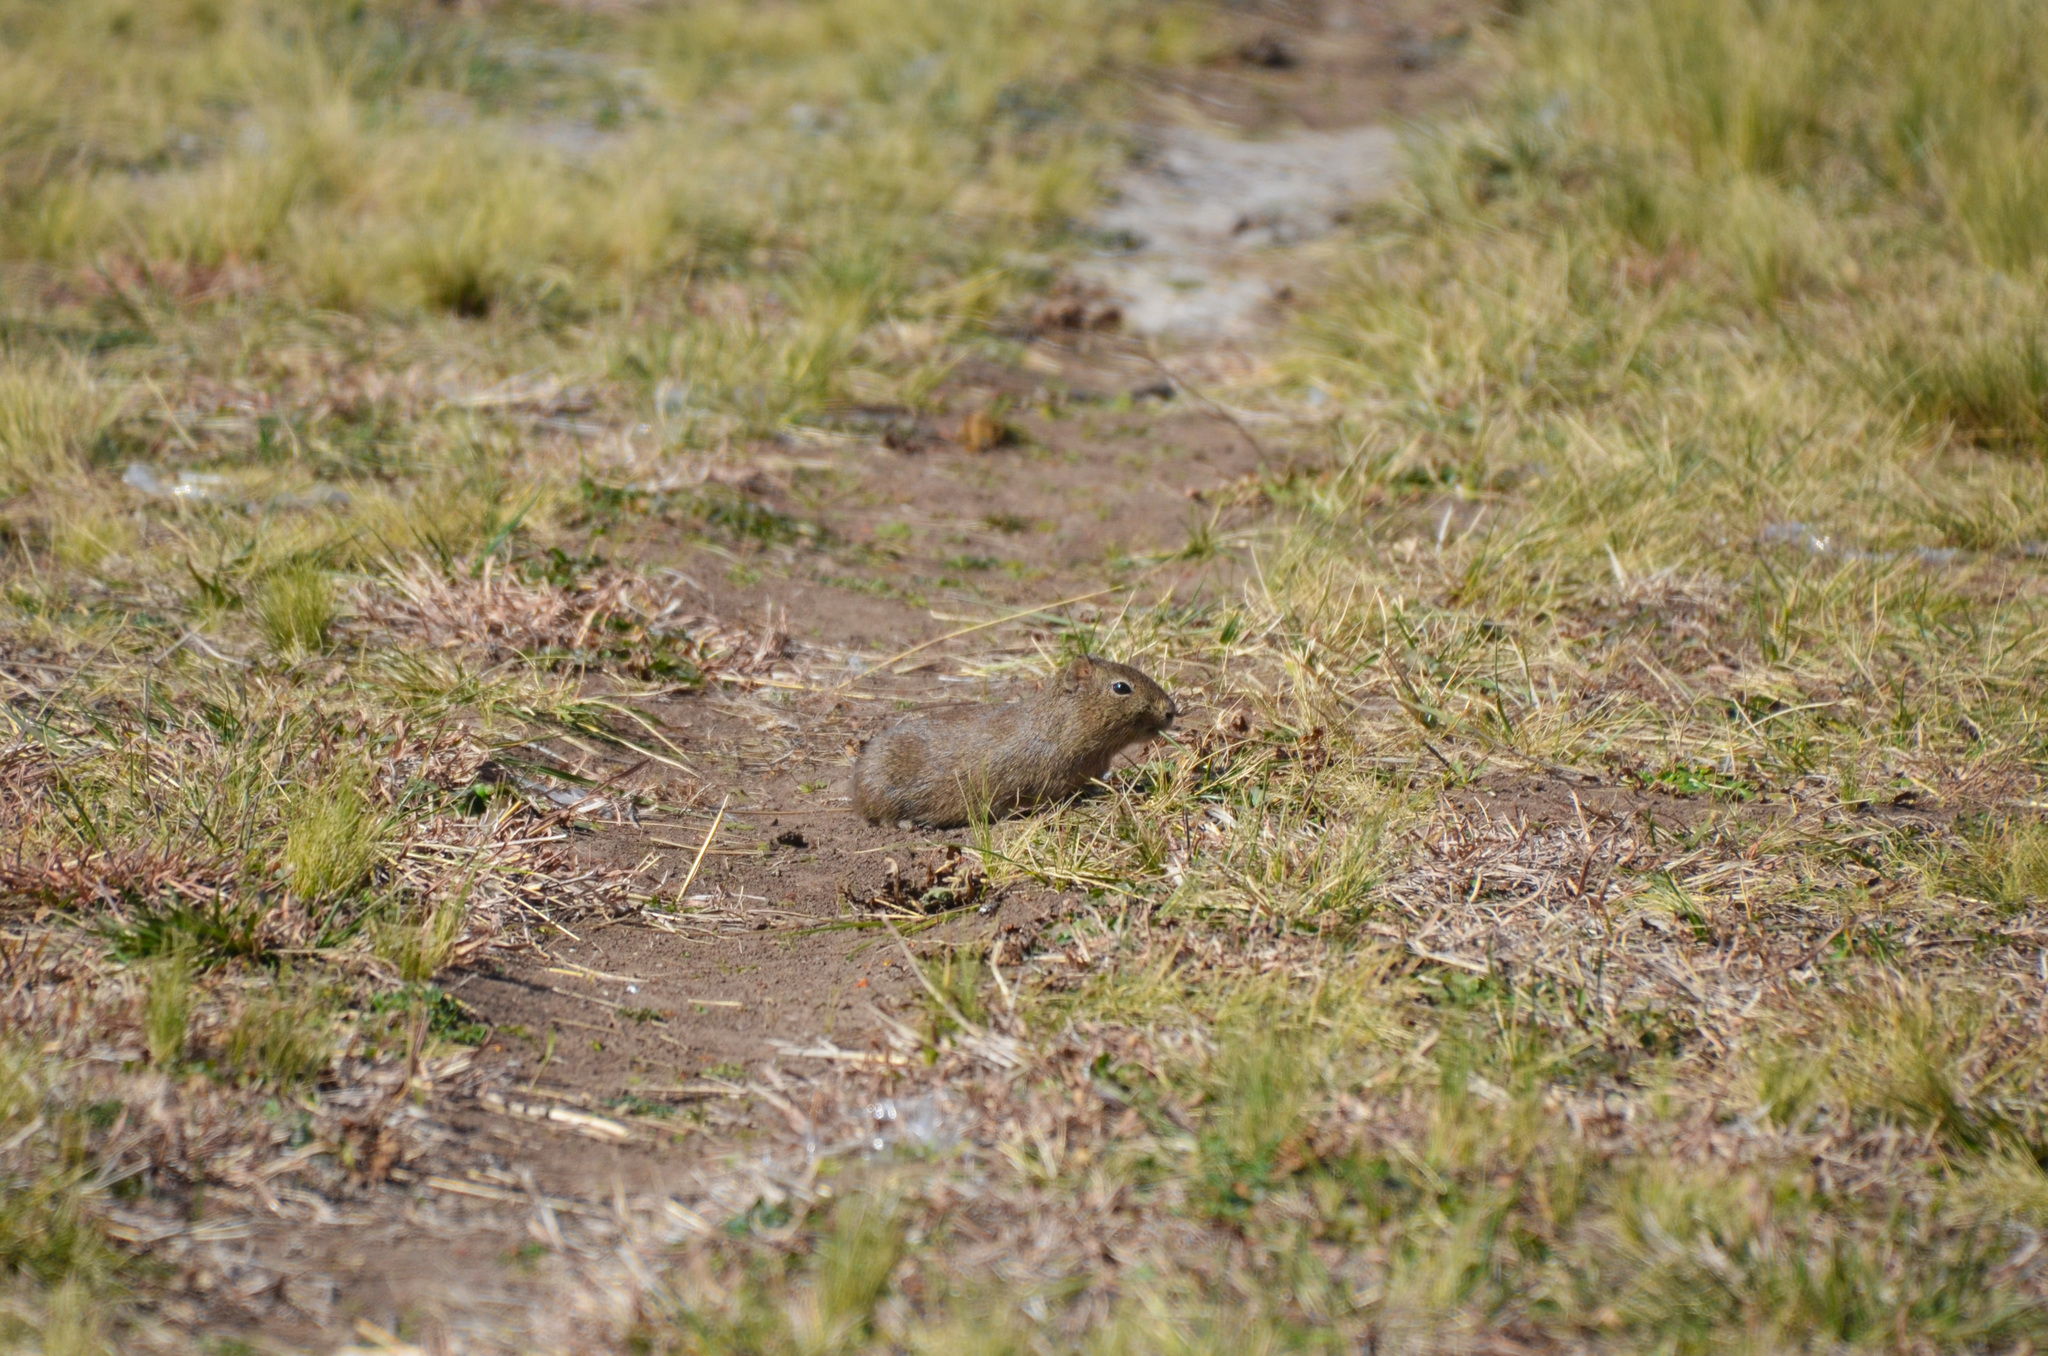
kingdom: Animalia
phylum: Chordata
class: Mammalia
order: Rodentia
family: Caviidae
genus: Microcavia
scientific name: Microcavia australis
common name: Southern mountain cavy
